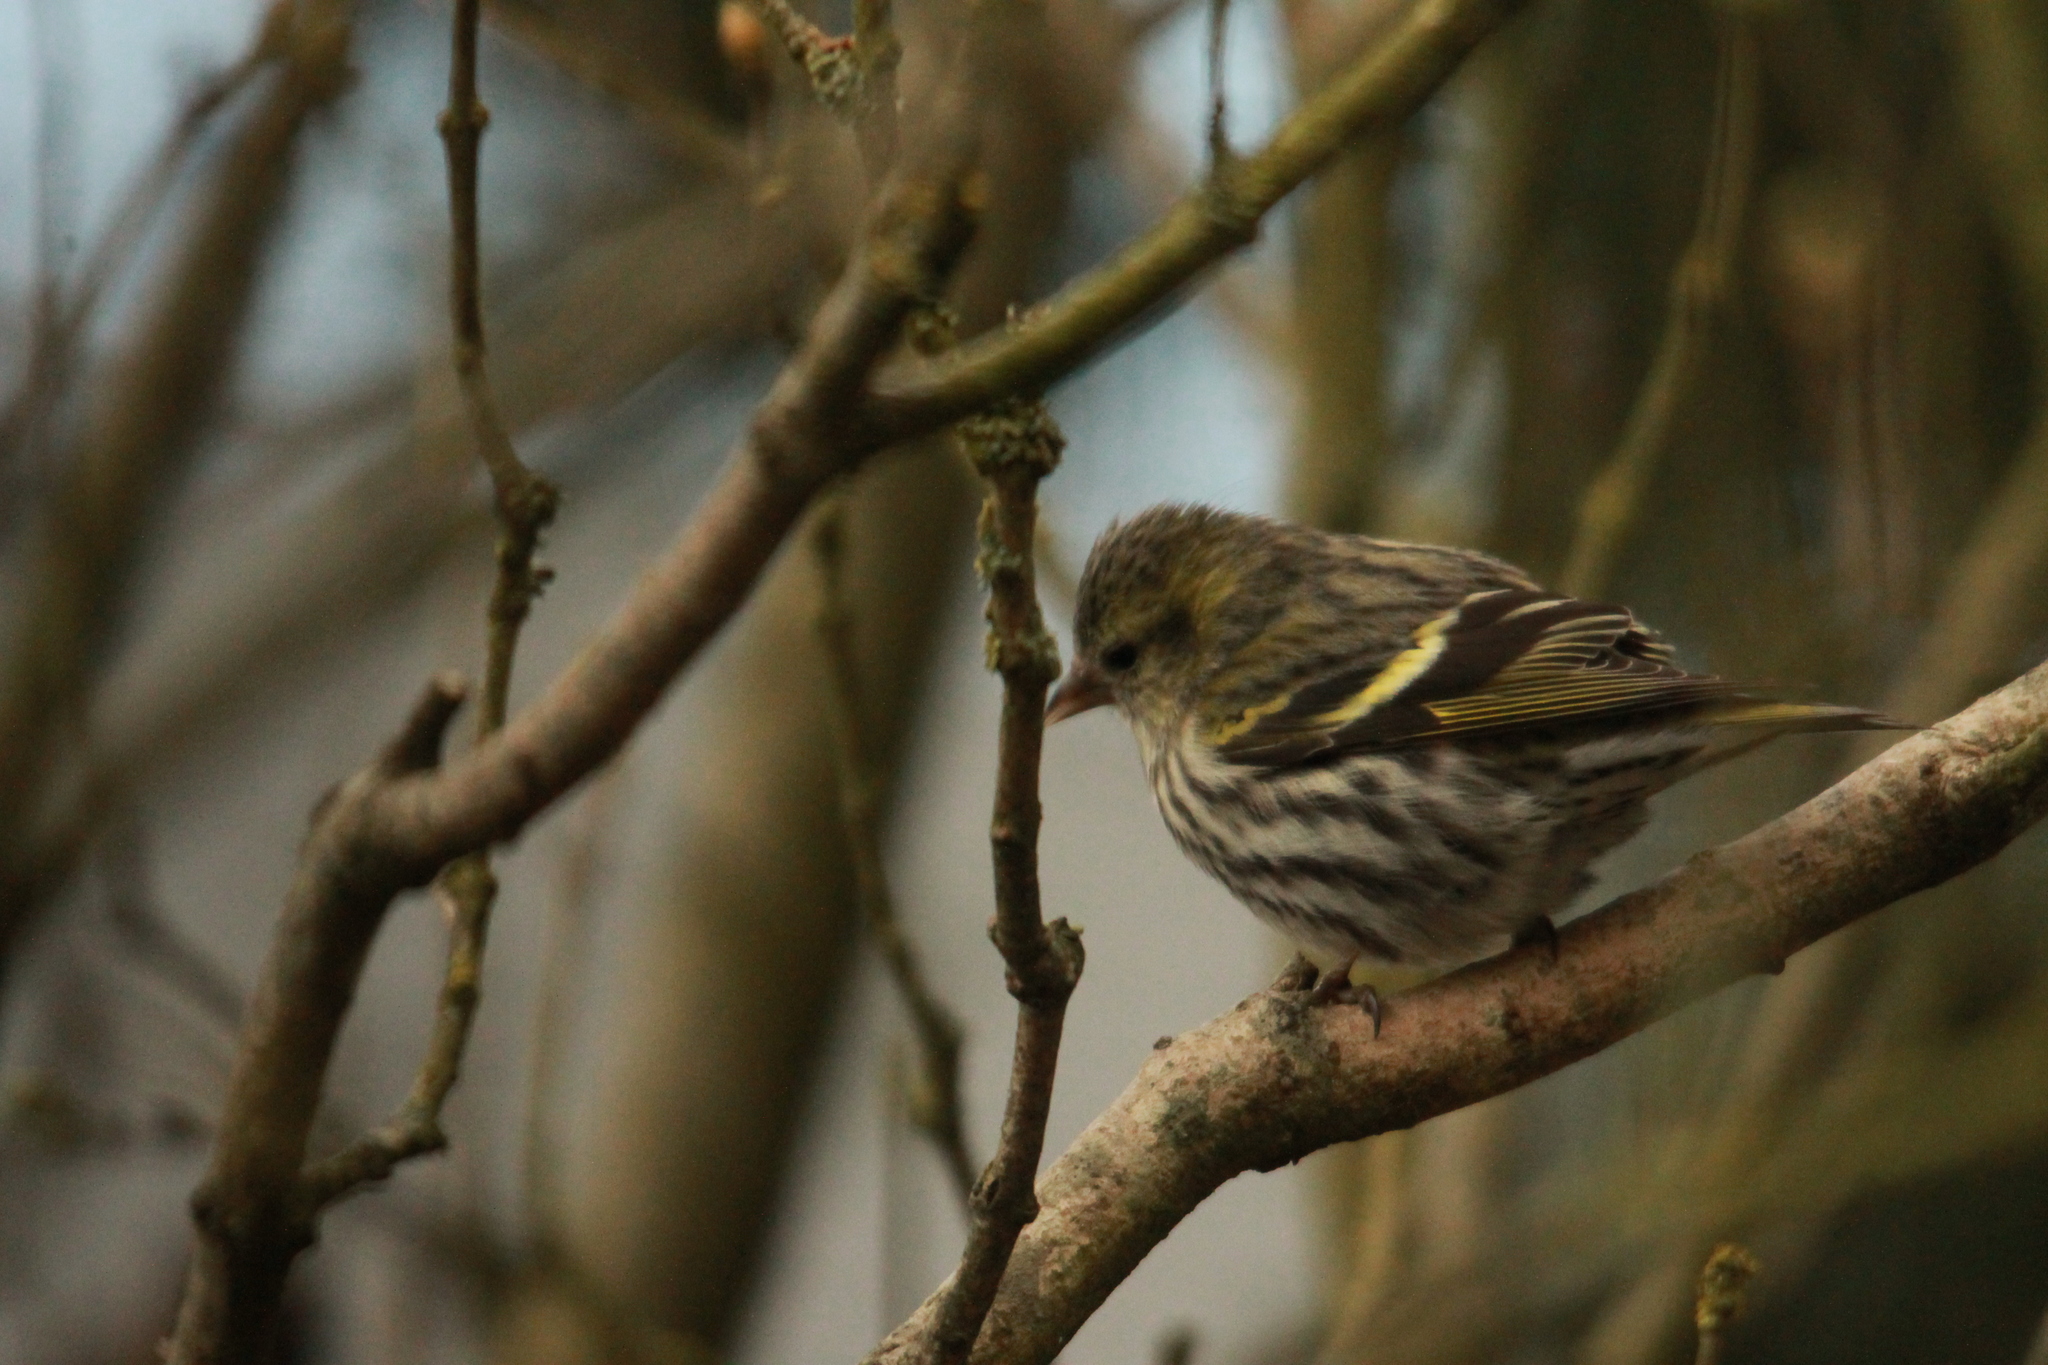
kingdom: Animalia
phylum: Chordata
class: Aves
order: Passeriformes
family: Fringillidae
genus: Spinus
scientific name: Spinus spinus
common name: Eurasian siskin
